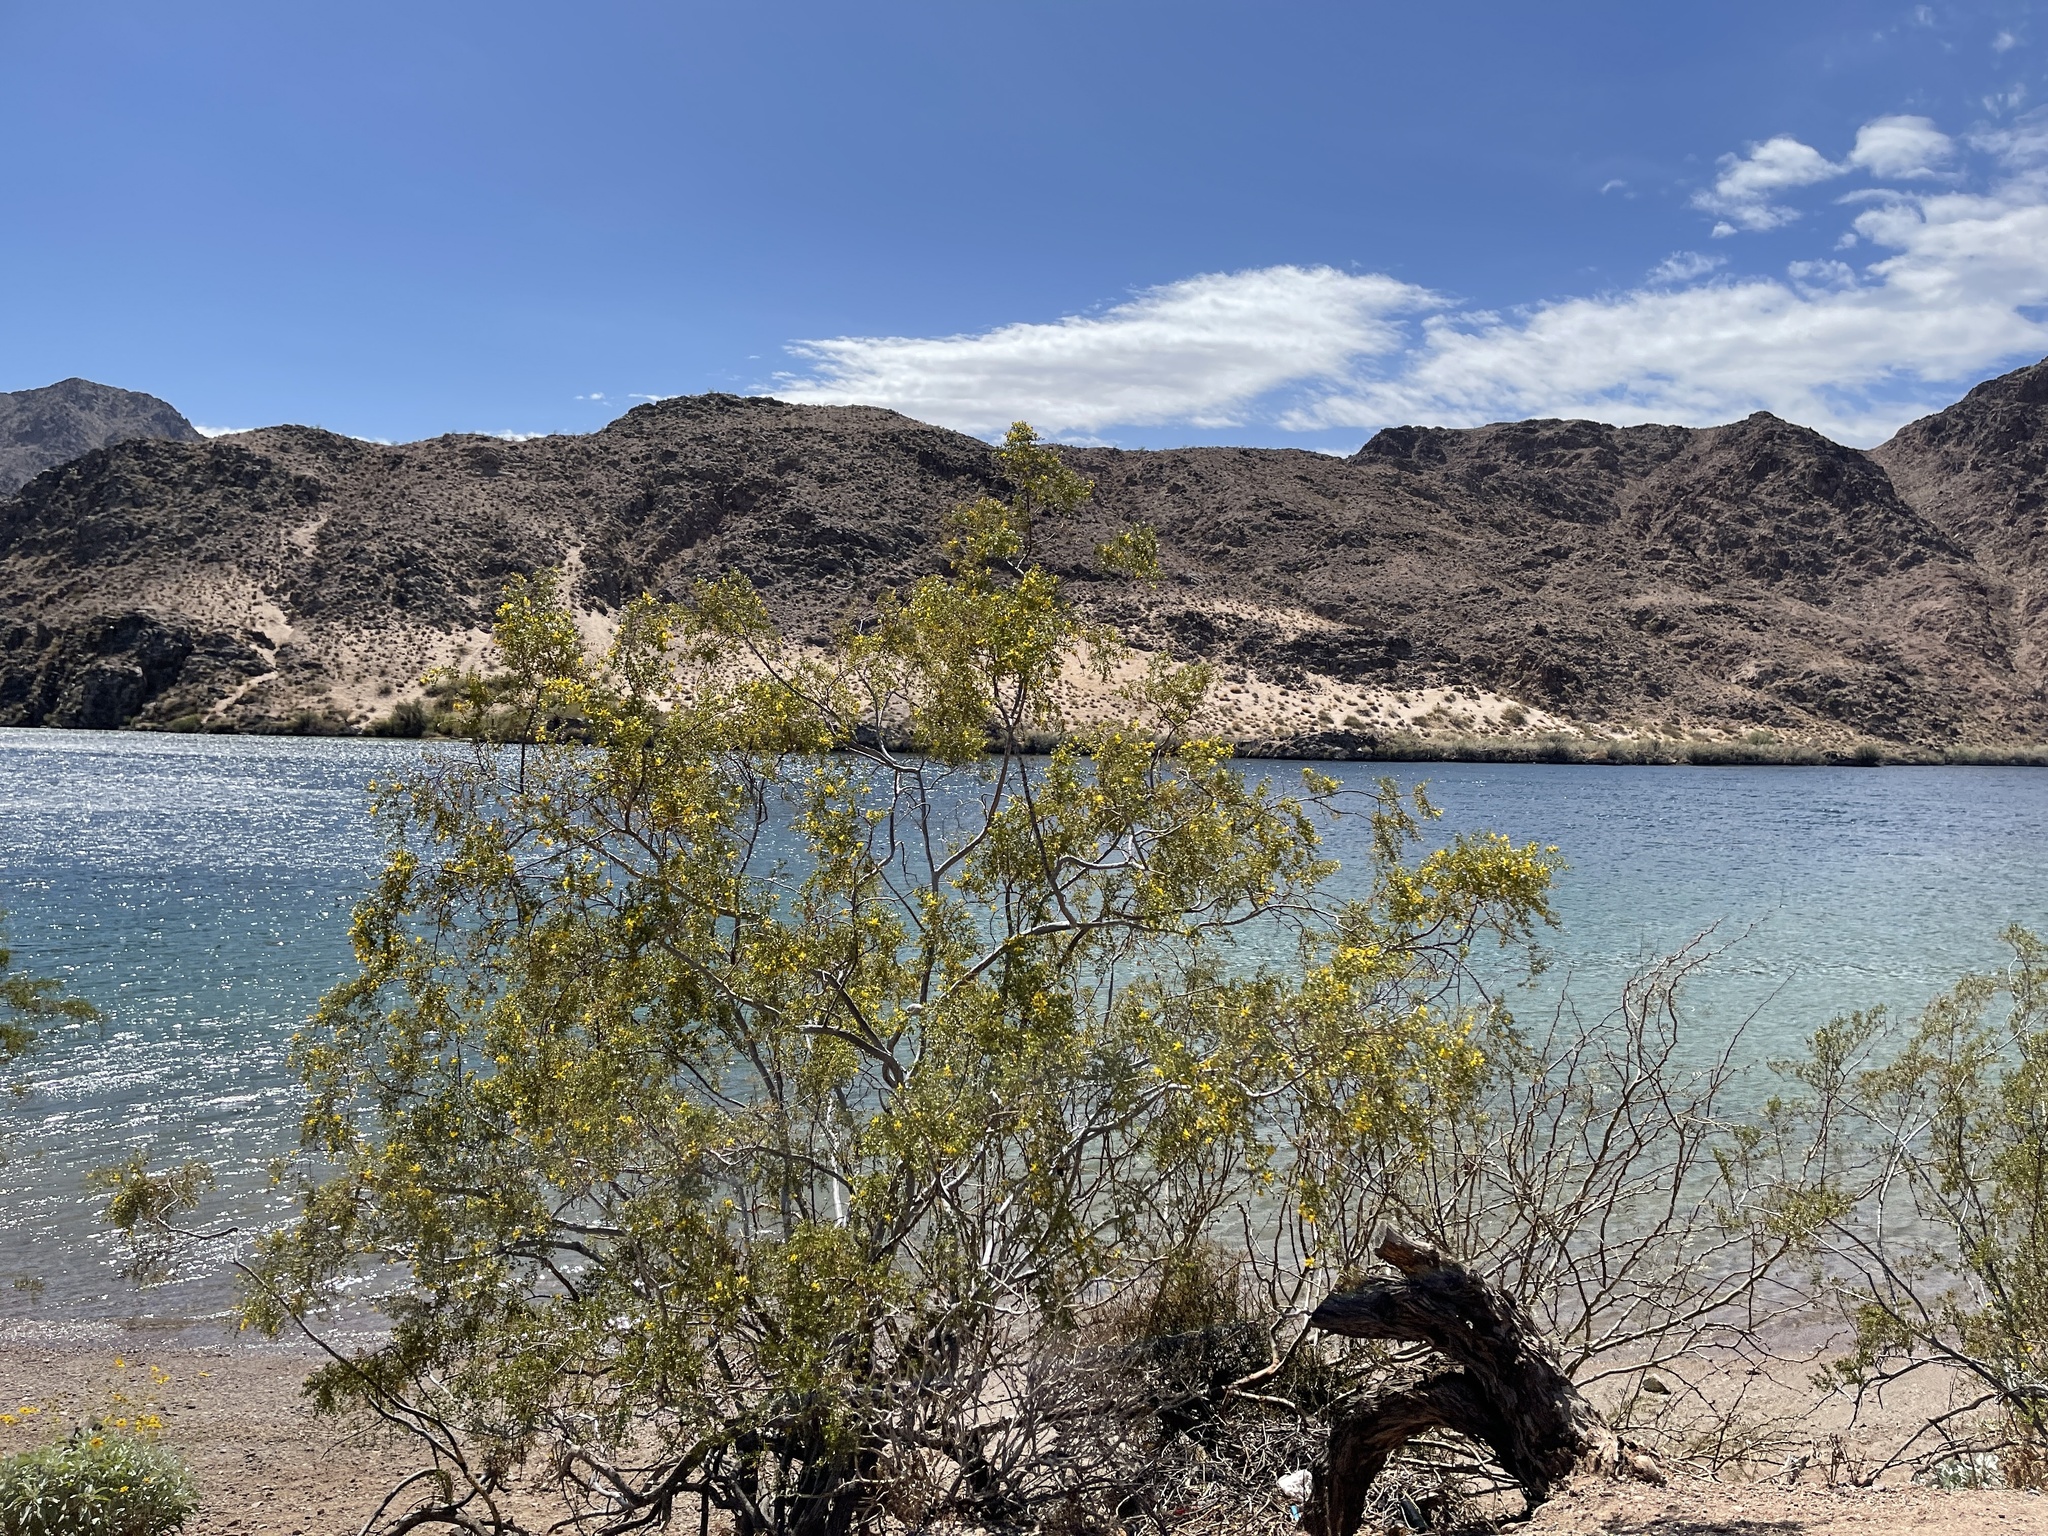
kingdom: Plantae
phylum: Tracheophyta
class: Magnoliopsida
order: Zygophyllales
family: Zygophyllaceae
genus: Larrea
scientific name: Larrea tridentata
